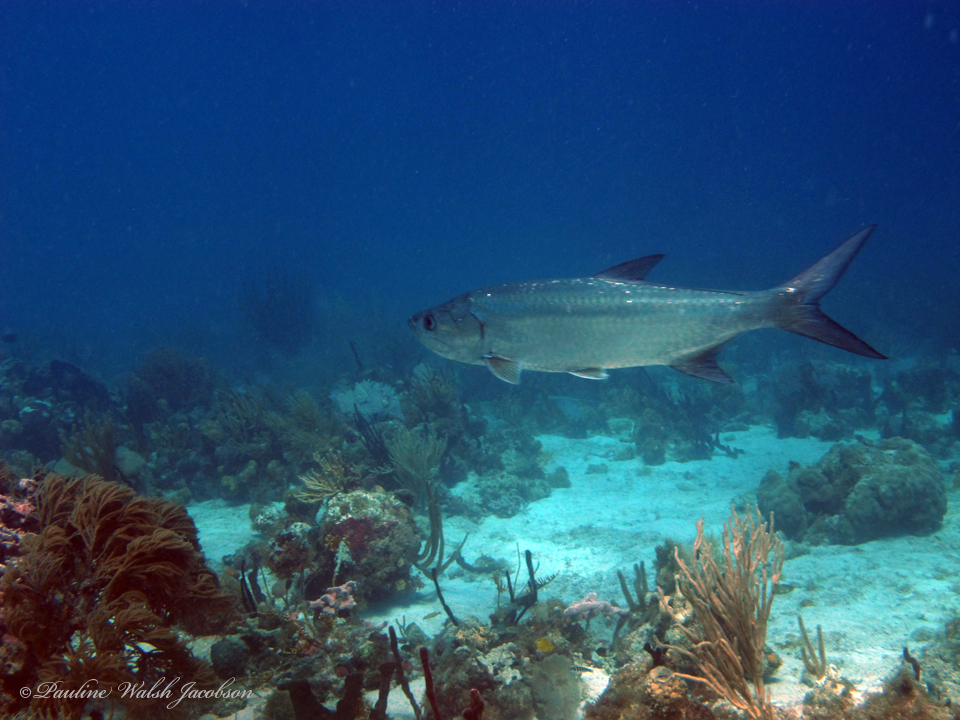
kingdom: Animalia
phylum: Chordata
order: Elopiformes
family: Megalopidae
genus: Megalops
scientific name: Megalops atlanticus
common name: Tarpon
